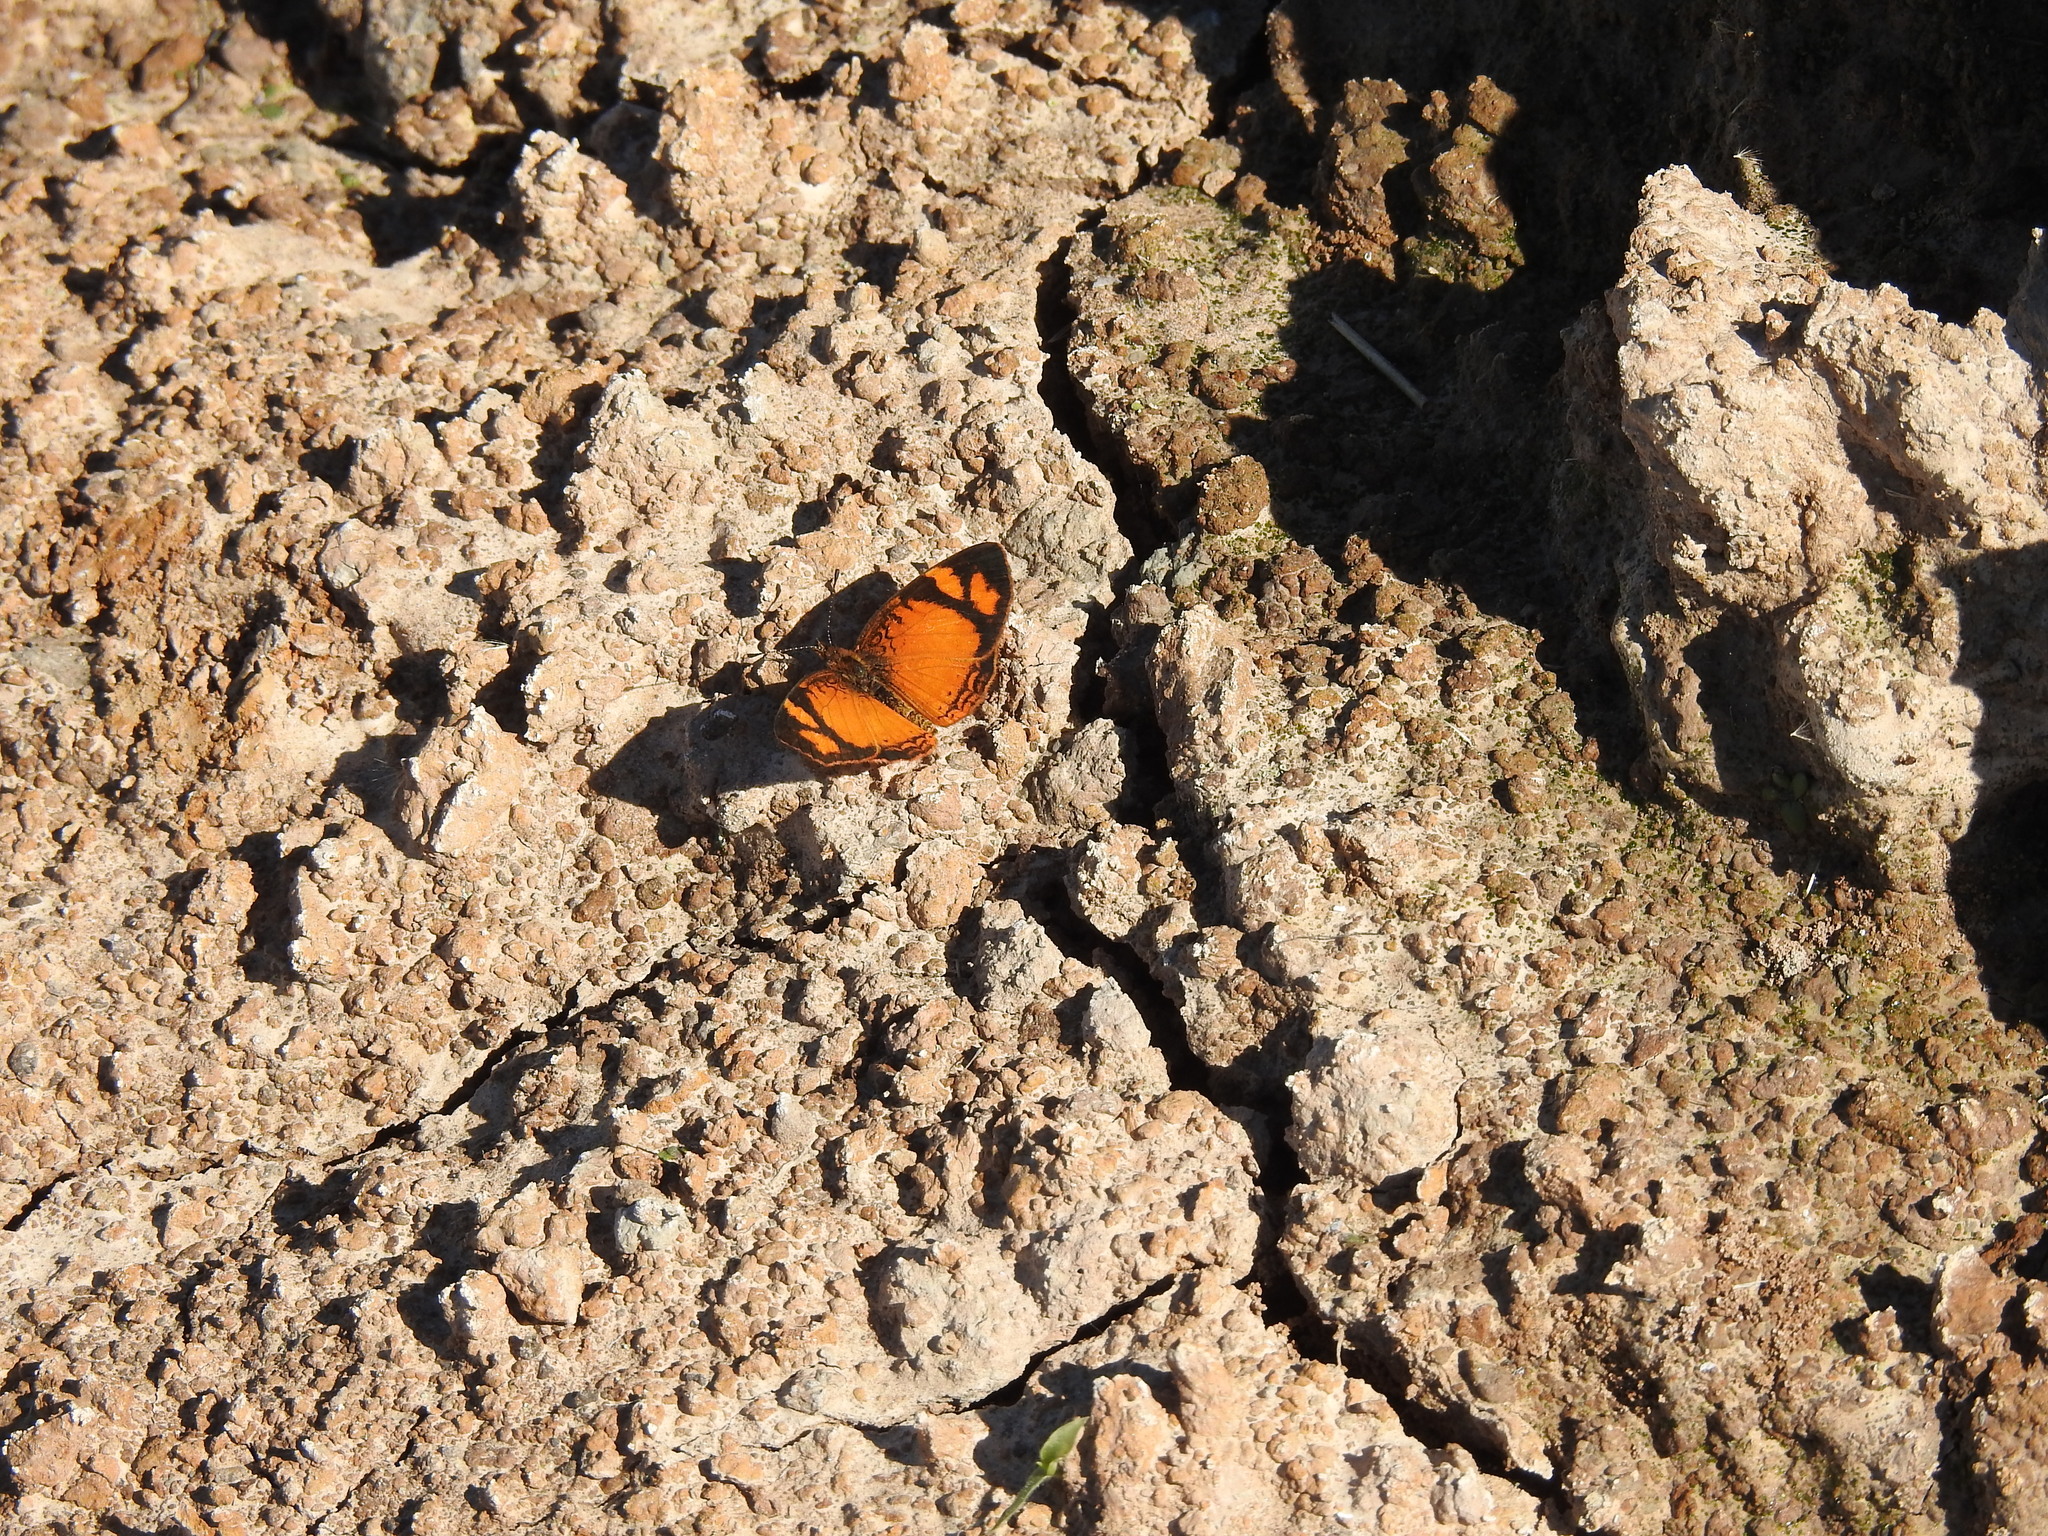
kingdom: Animalia
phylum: Arthropoda
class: Insecta
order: Lepidoptera
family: Nymphalidae
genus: Tegosa
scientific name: Tegosa claudina
